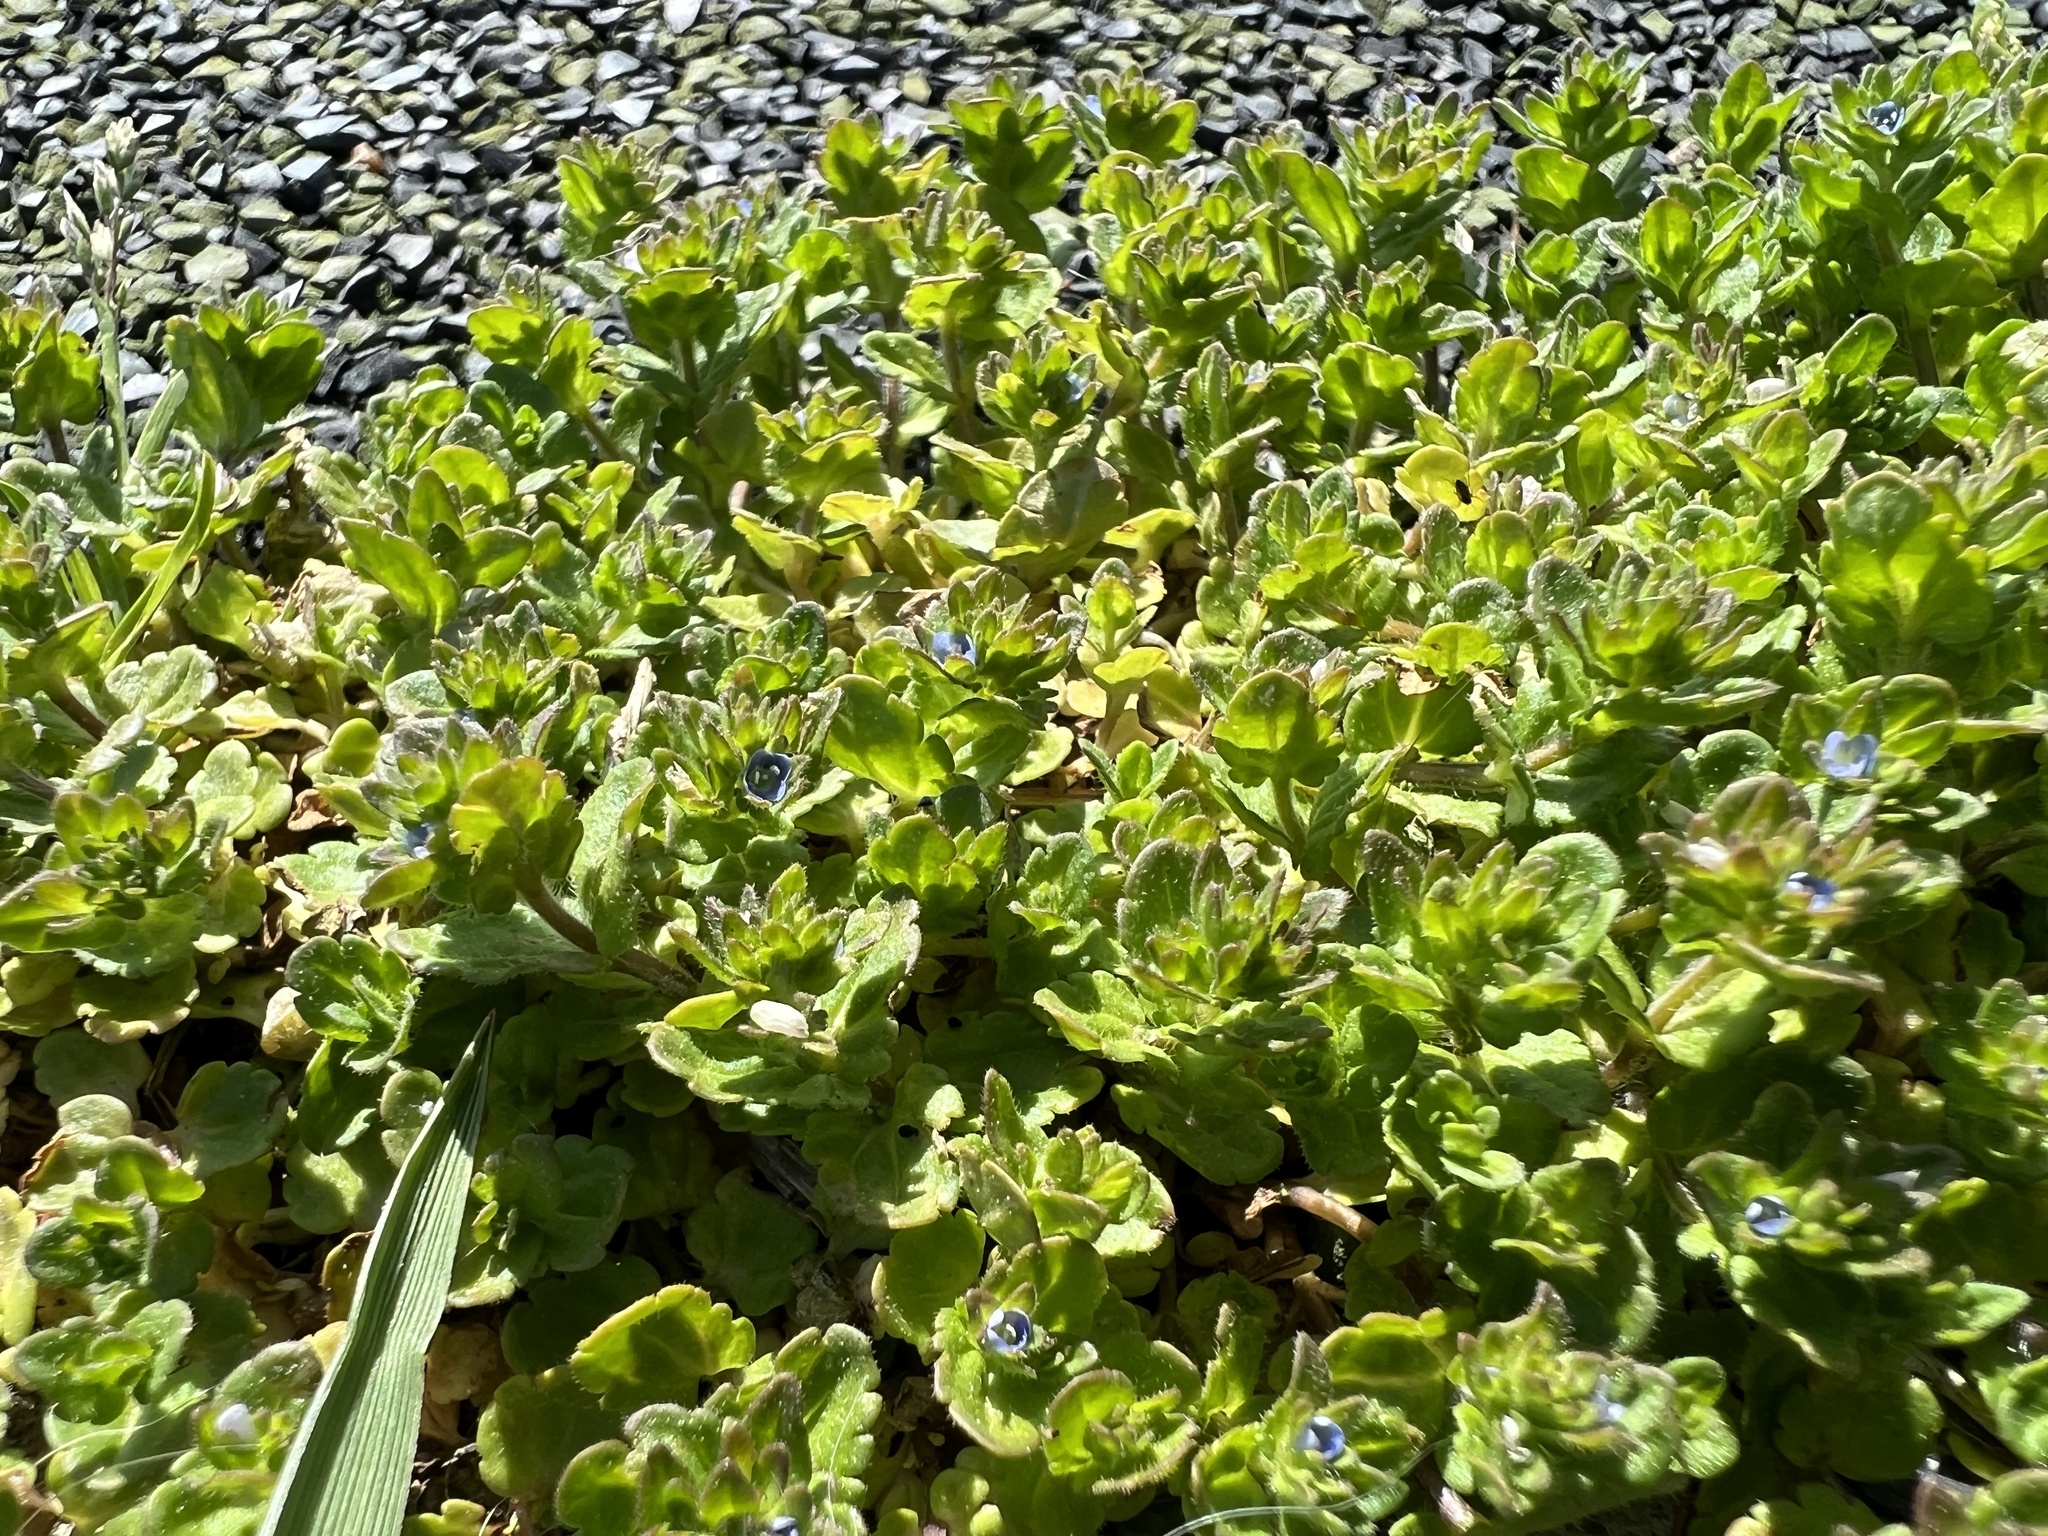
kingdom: Plantae
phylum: Tracheophyta
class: Magnoliopsida
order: Lamiales
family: Plantaginaceae
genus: Veronica
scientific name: Veronica arvensis
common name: Corn speedwell
